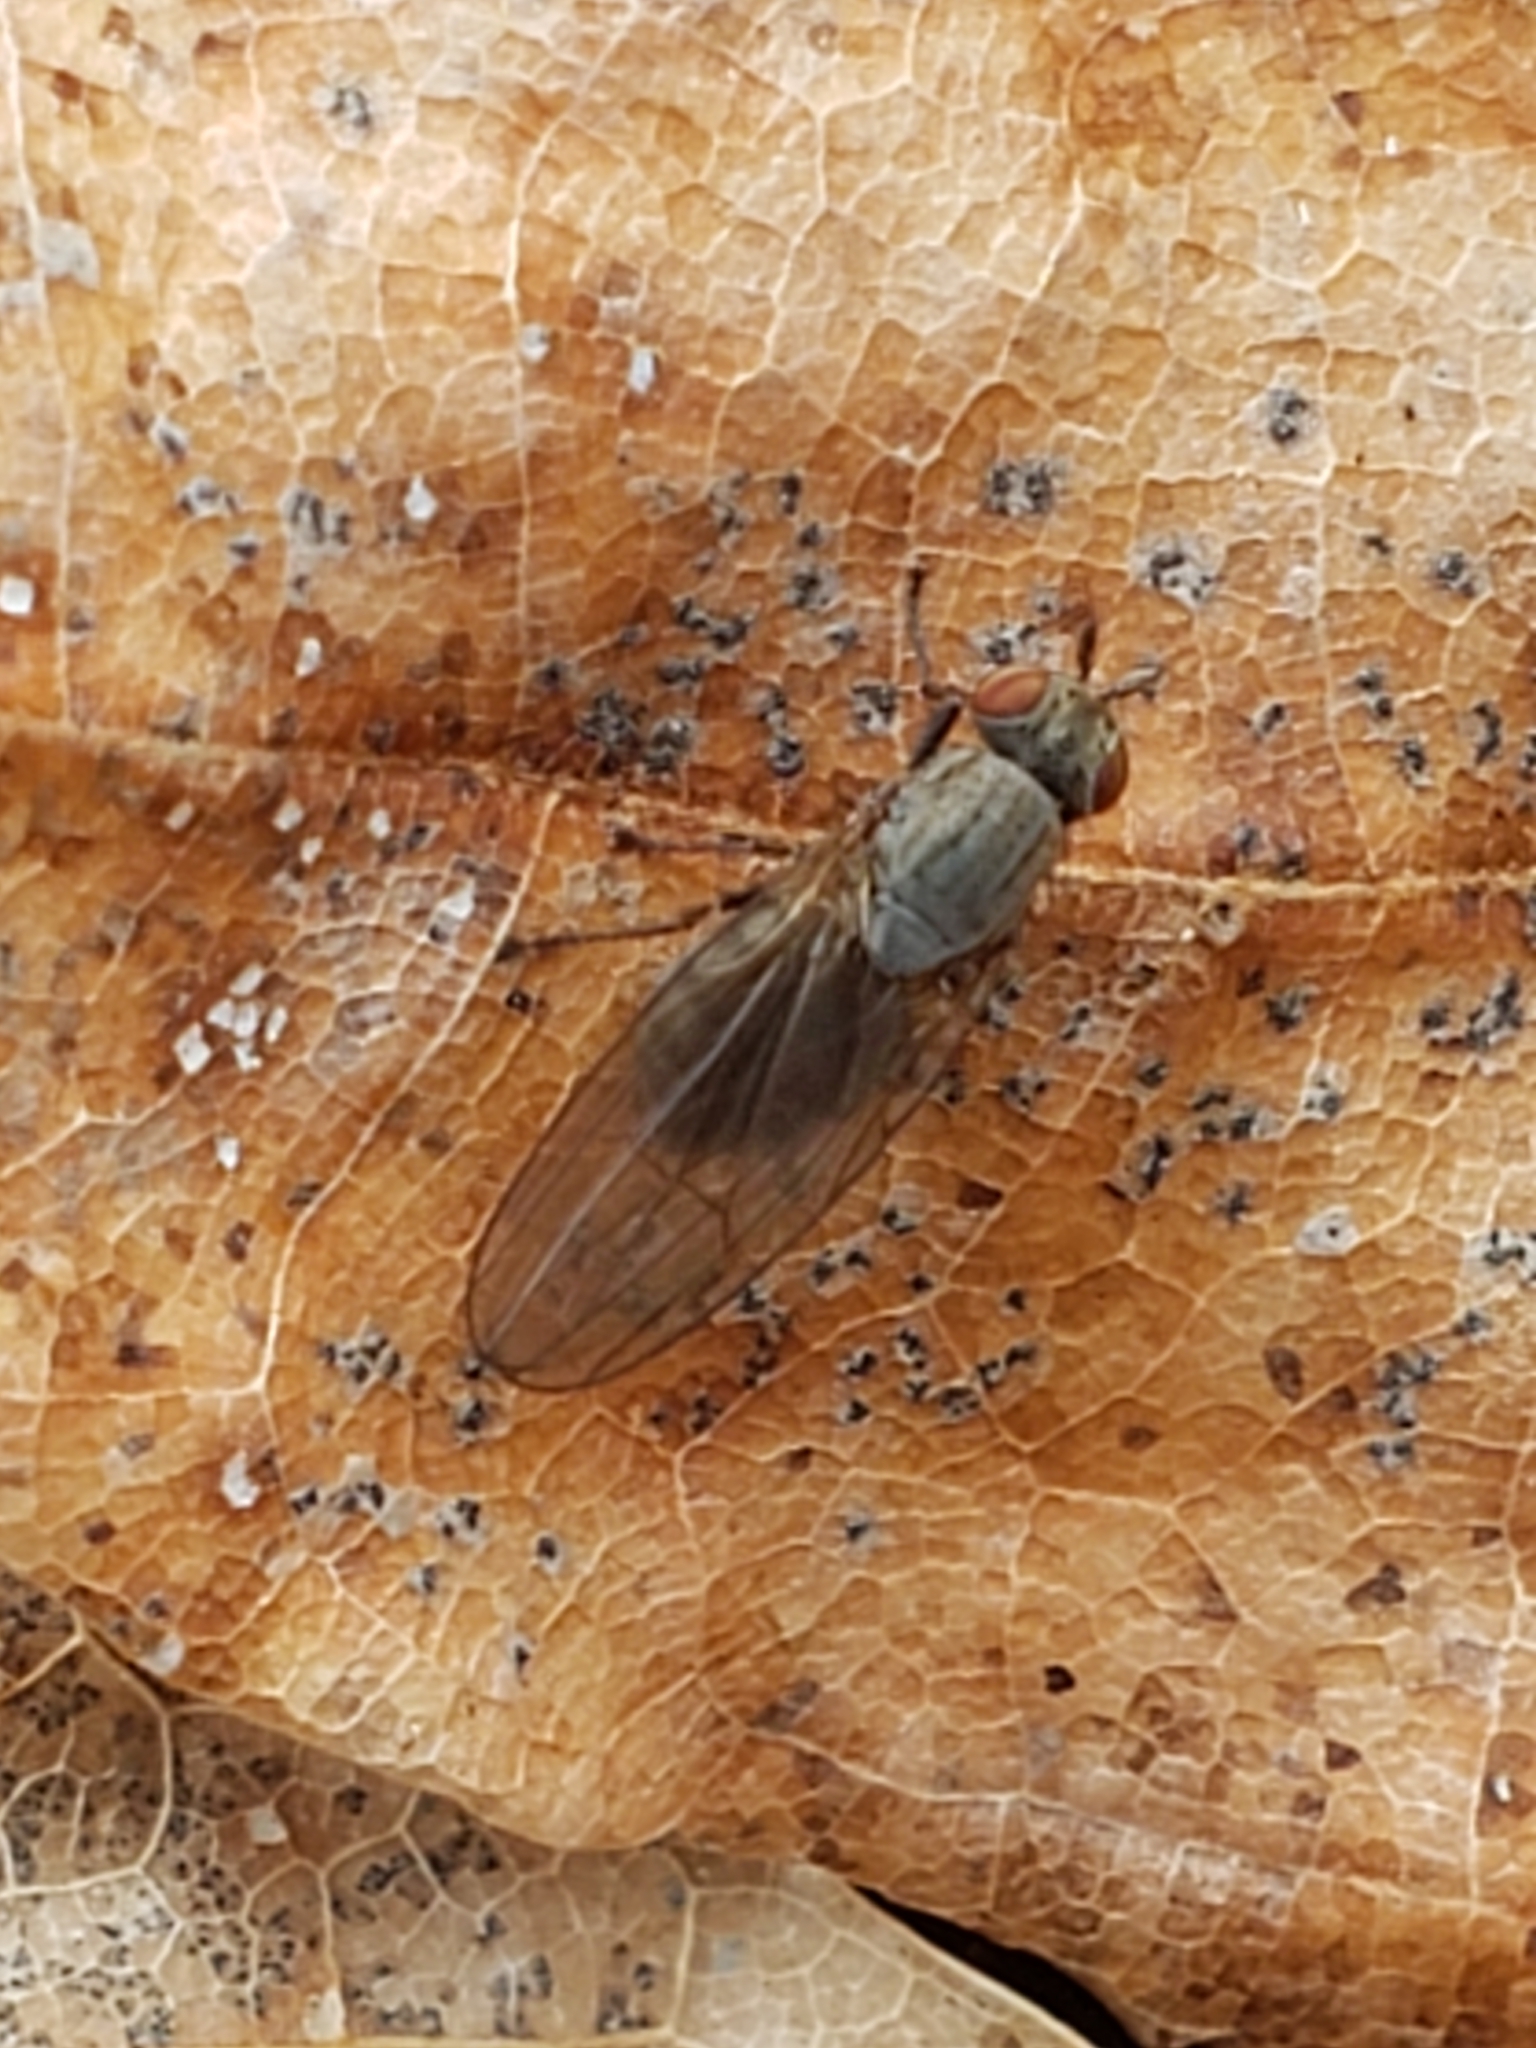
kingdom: Animalia
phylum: Arthropoda
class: Insecta
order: Diptera
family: Lauxaniidae
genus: Sapromyza
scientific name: Sapromyza brachysoma
